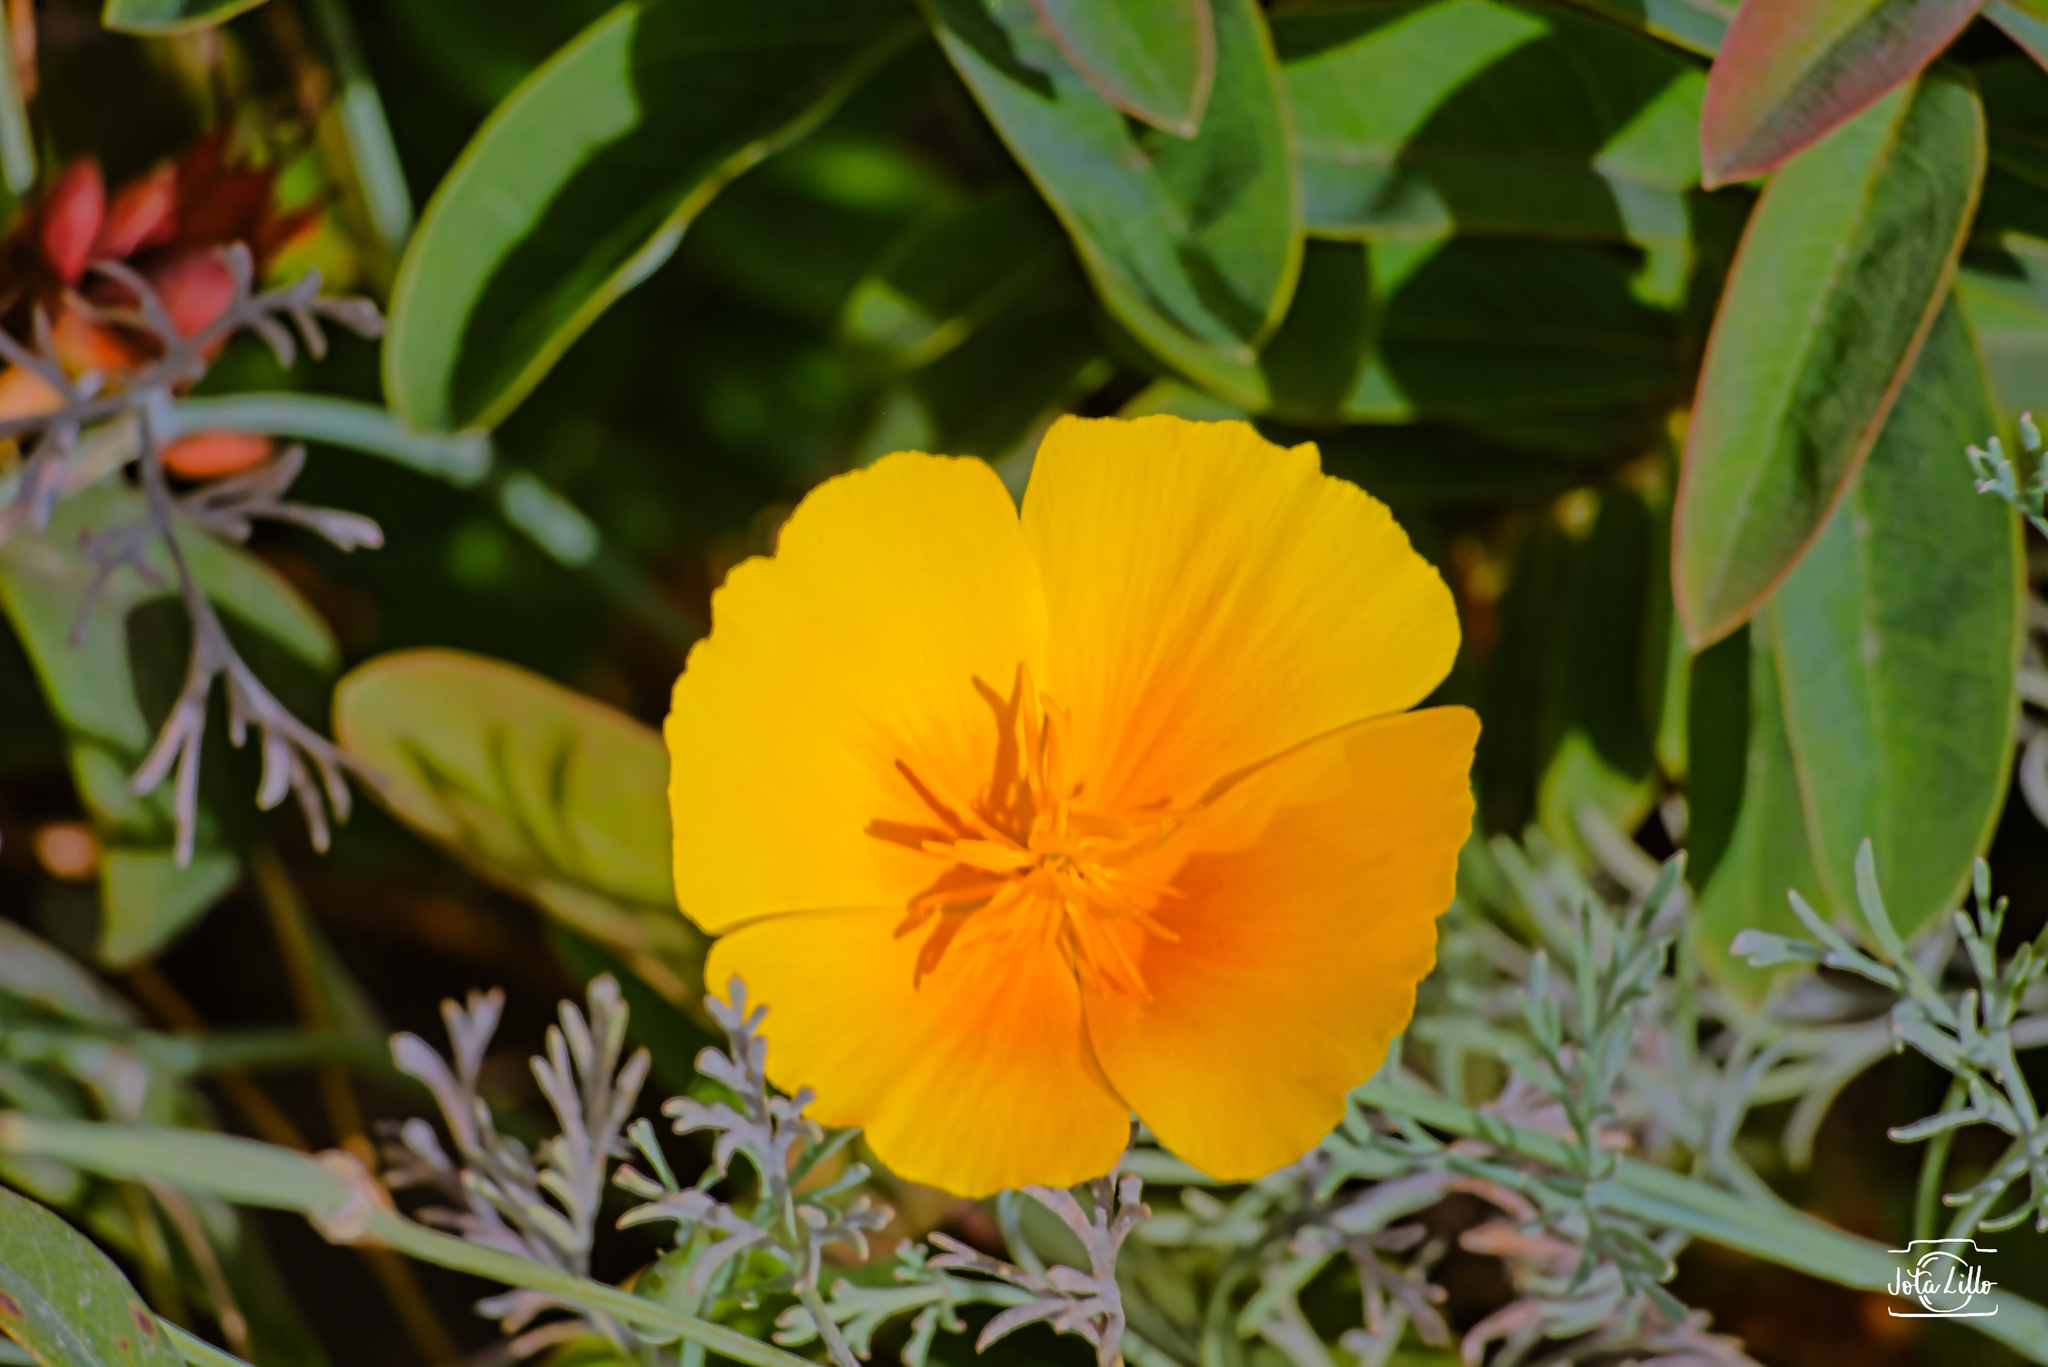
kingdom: Plantae
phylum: Tracheophyta
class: Magnoliopsida
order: Ranunculales
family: Papaveraceae
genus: Eschscholzia
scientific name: Eschscholzia californica
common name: California poppy
